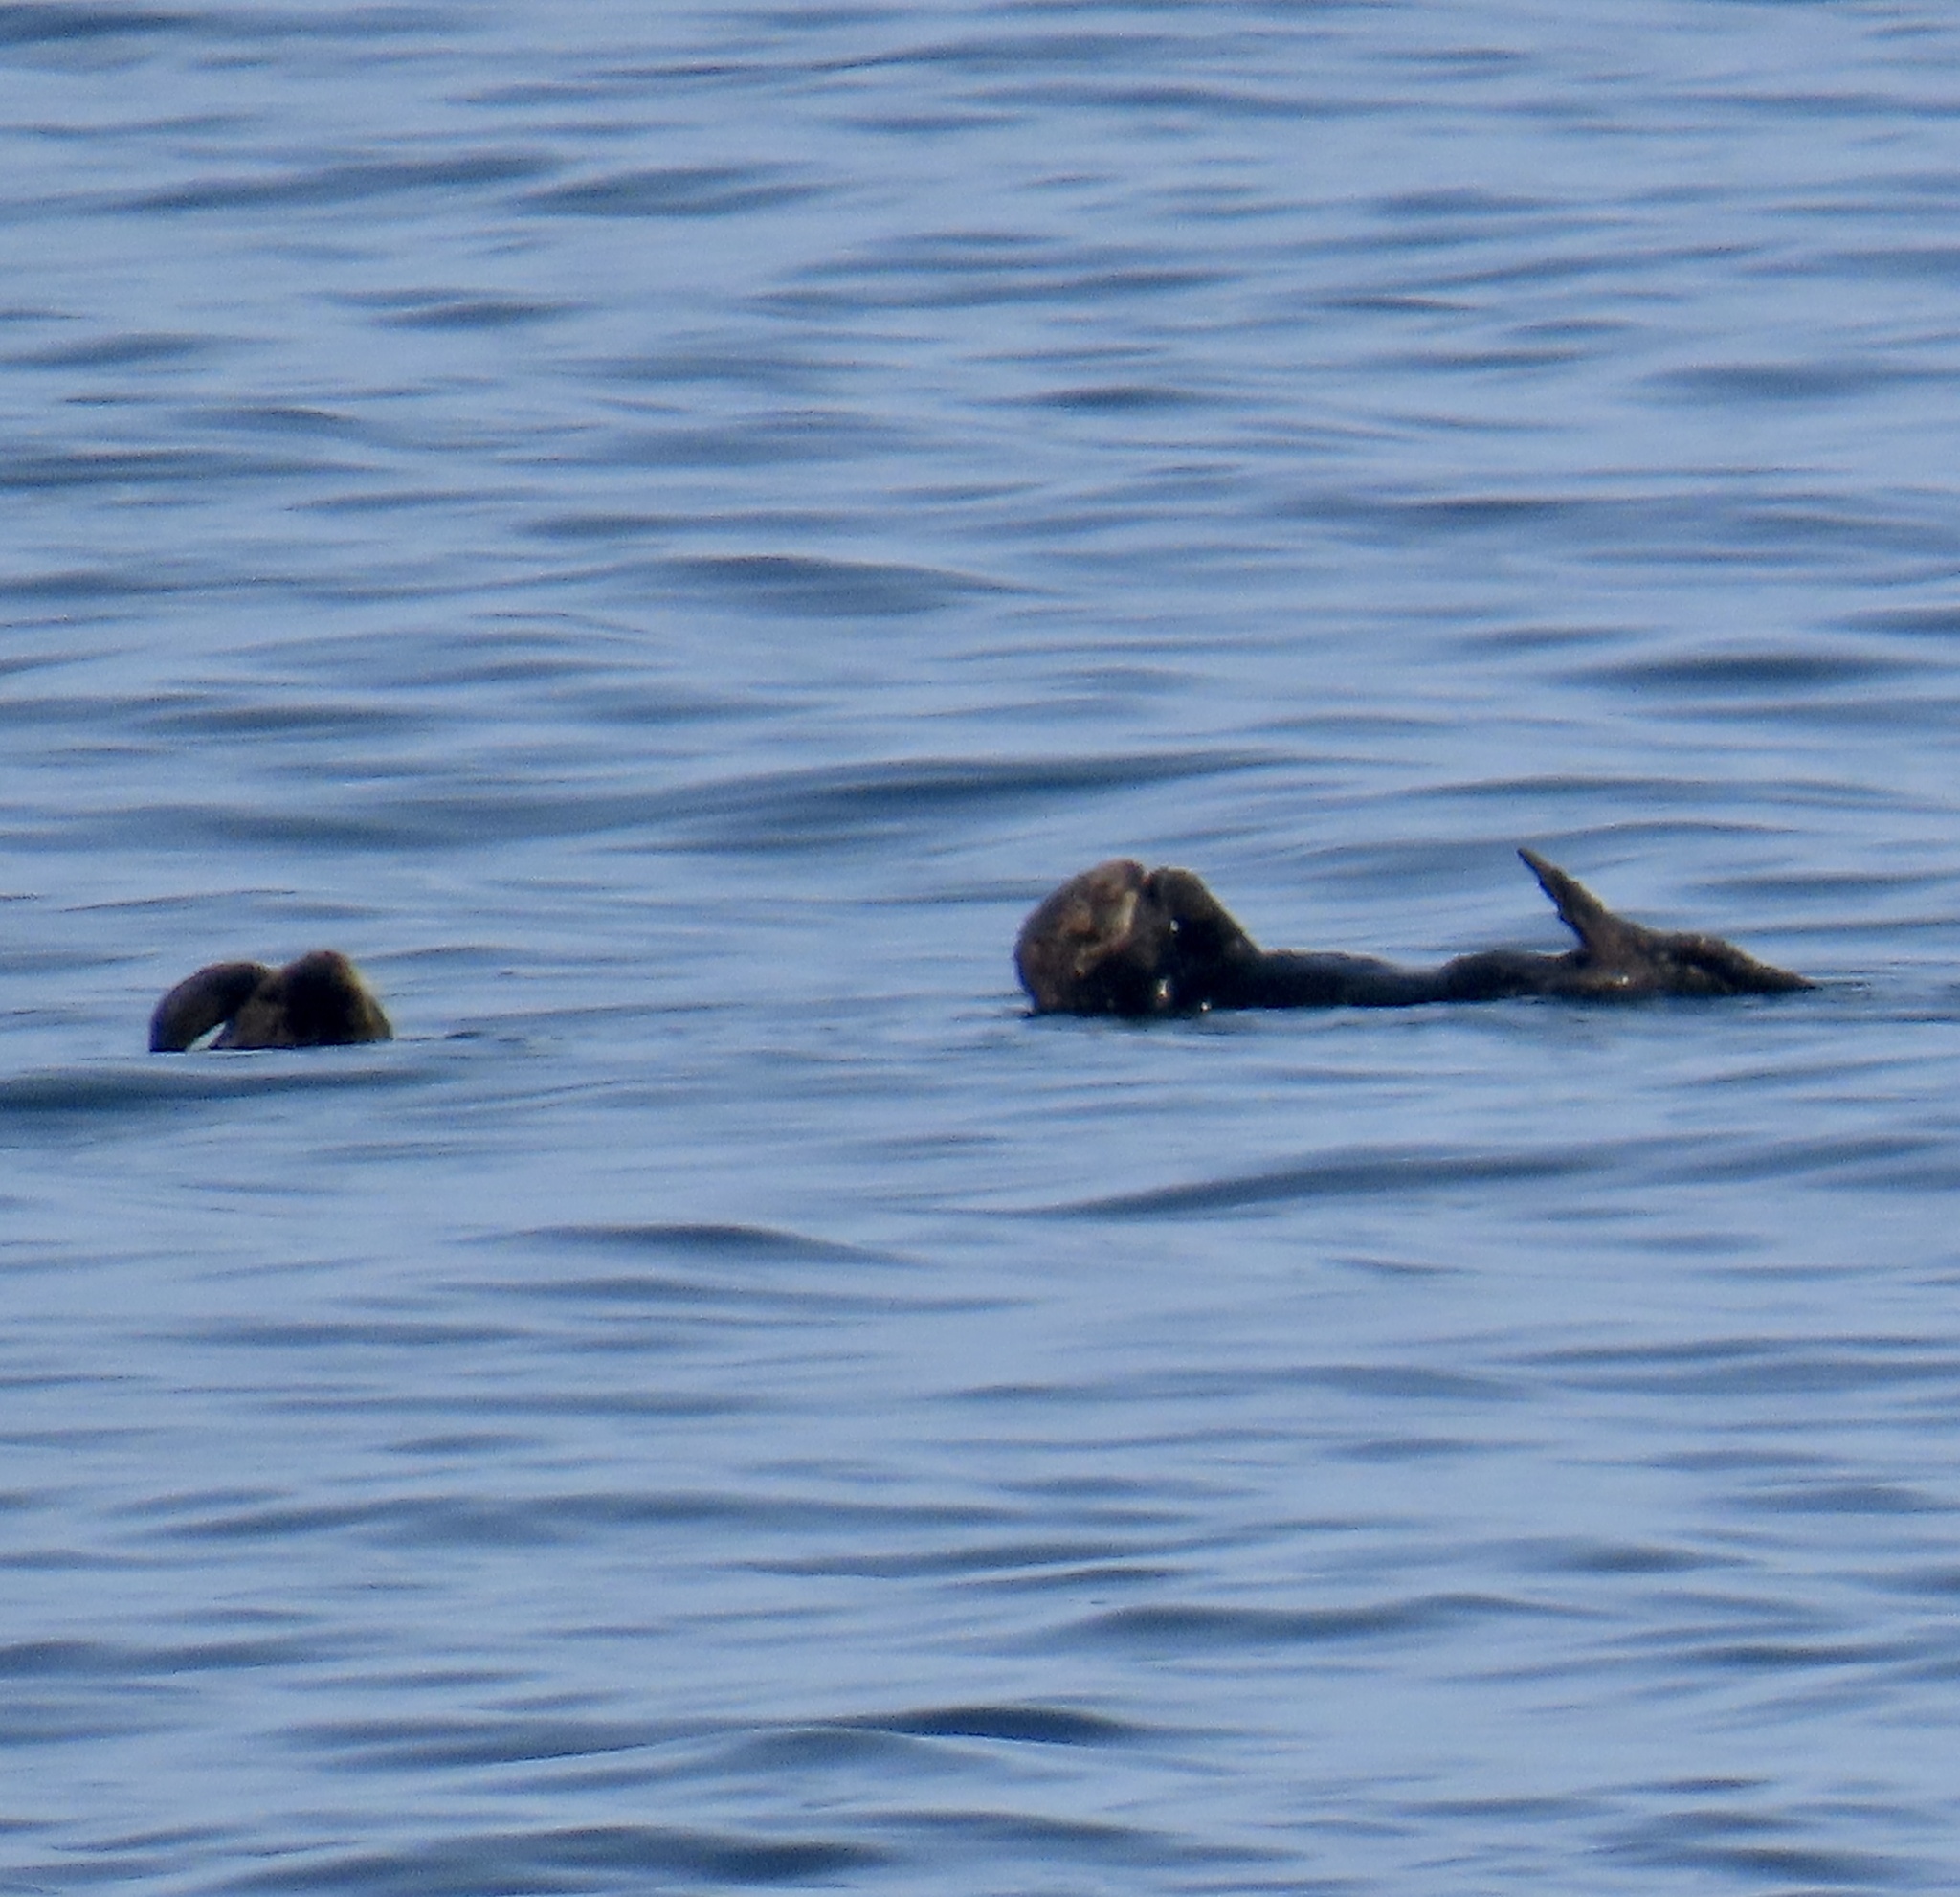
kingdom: Animalia
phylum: Chordata
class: Mammalia
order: Carnivora
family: Mustelidae
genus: Enhydra
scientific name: Enhydra lutris
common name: Sea otter
